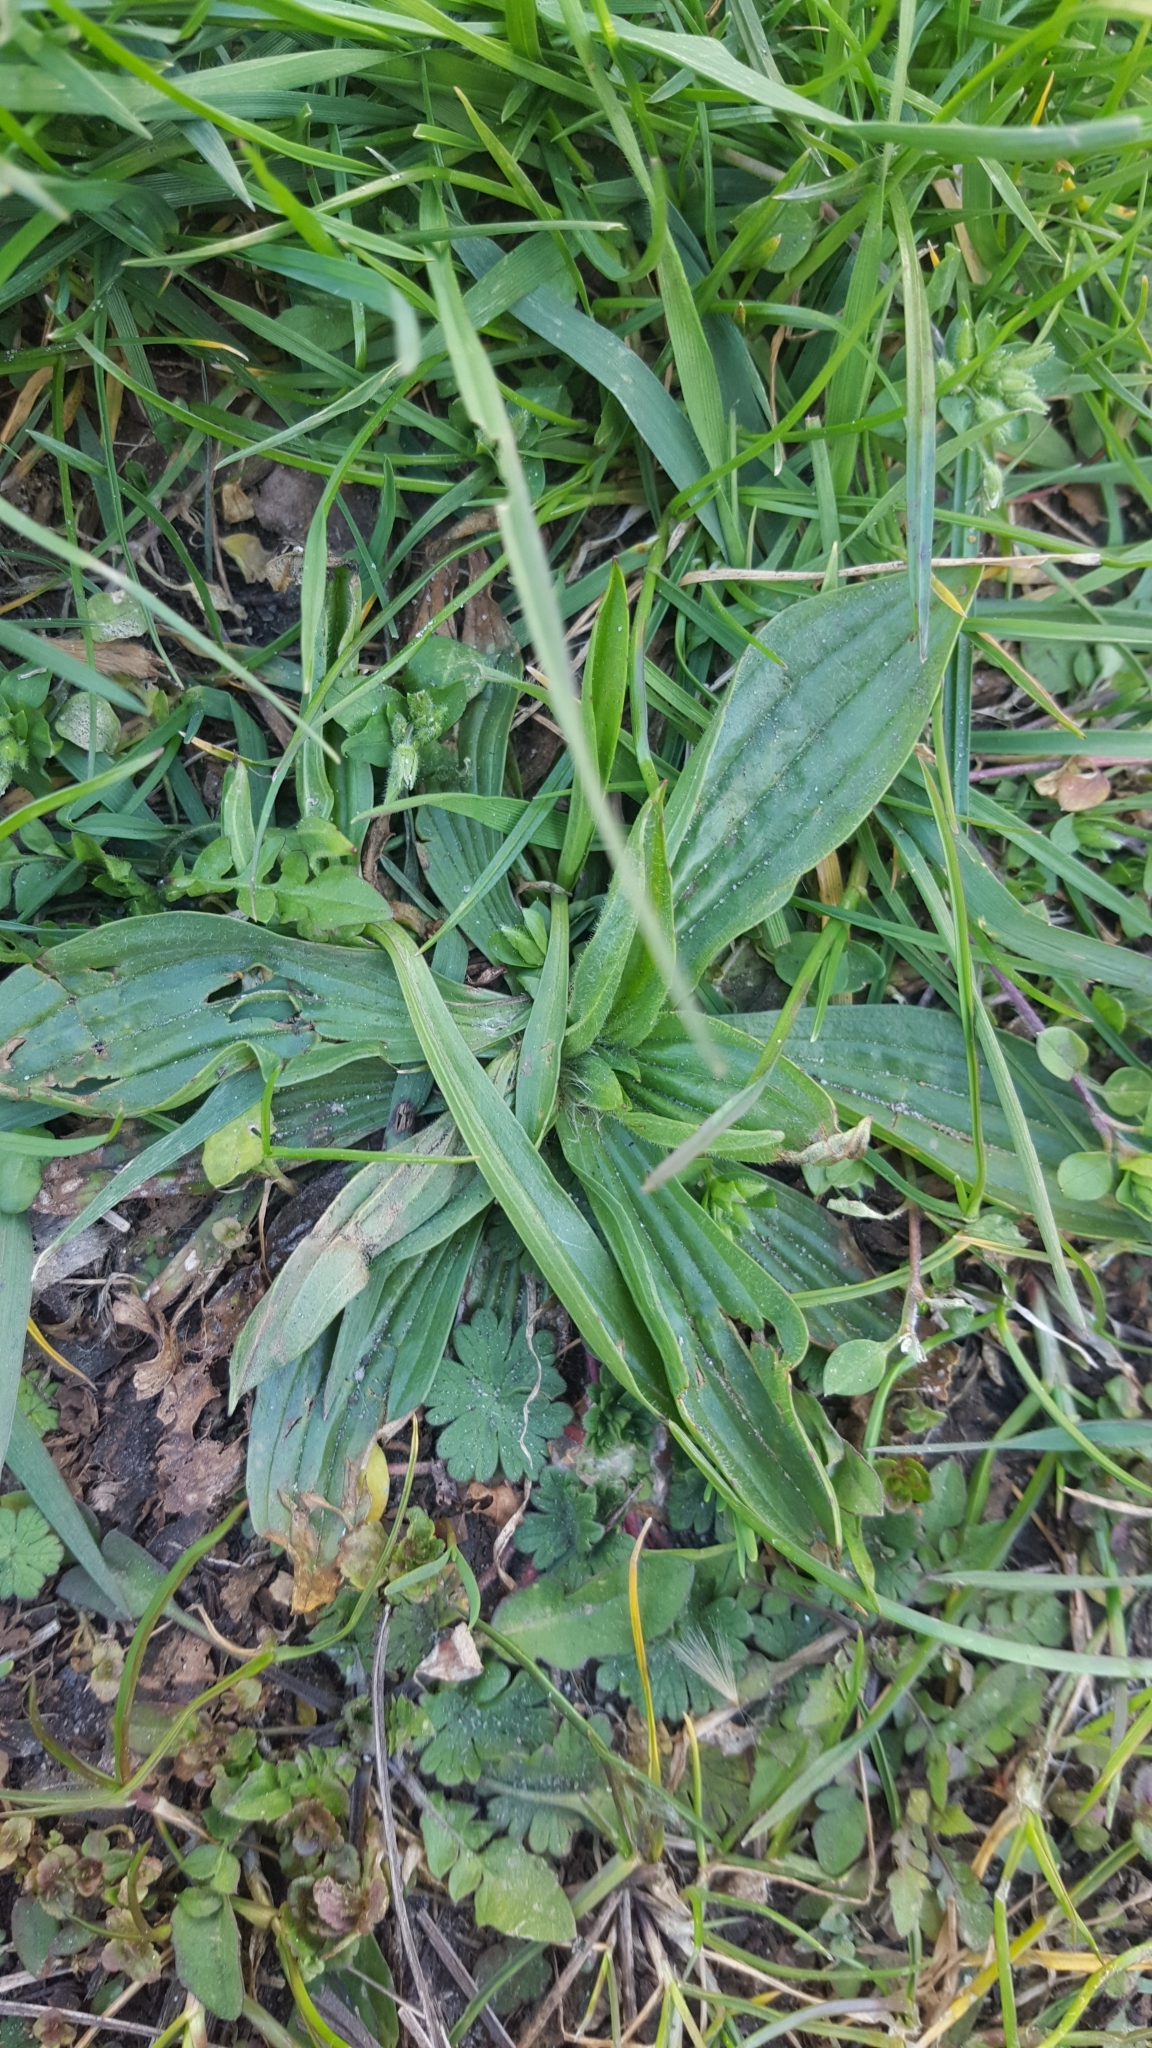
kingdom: Plantae
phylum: Tracheophyta
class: Magnoliopsida
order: Lamiales
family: Plantaginaceae
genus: Plantago
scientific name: Plantago lanceolata
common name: Ribwort plantain
